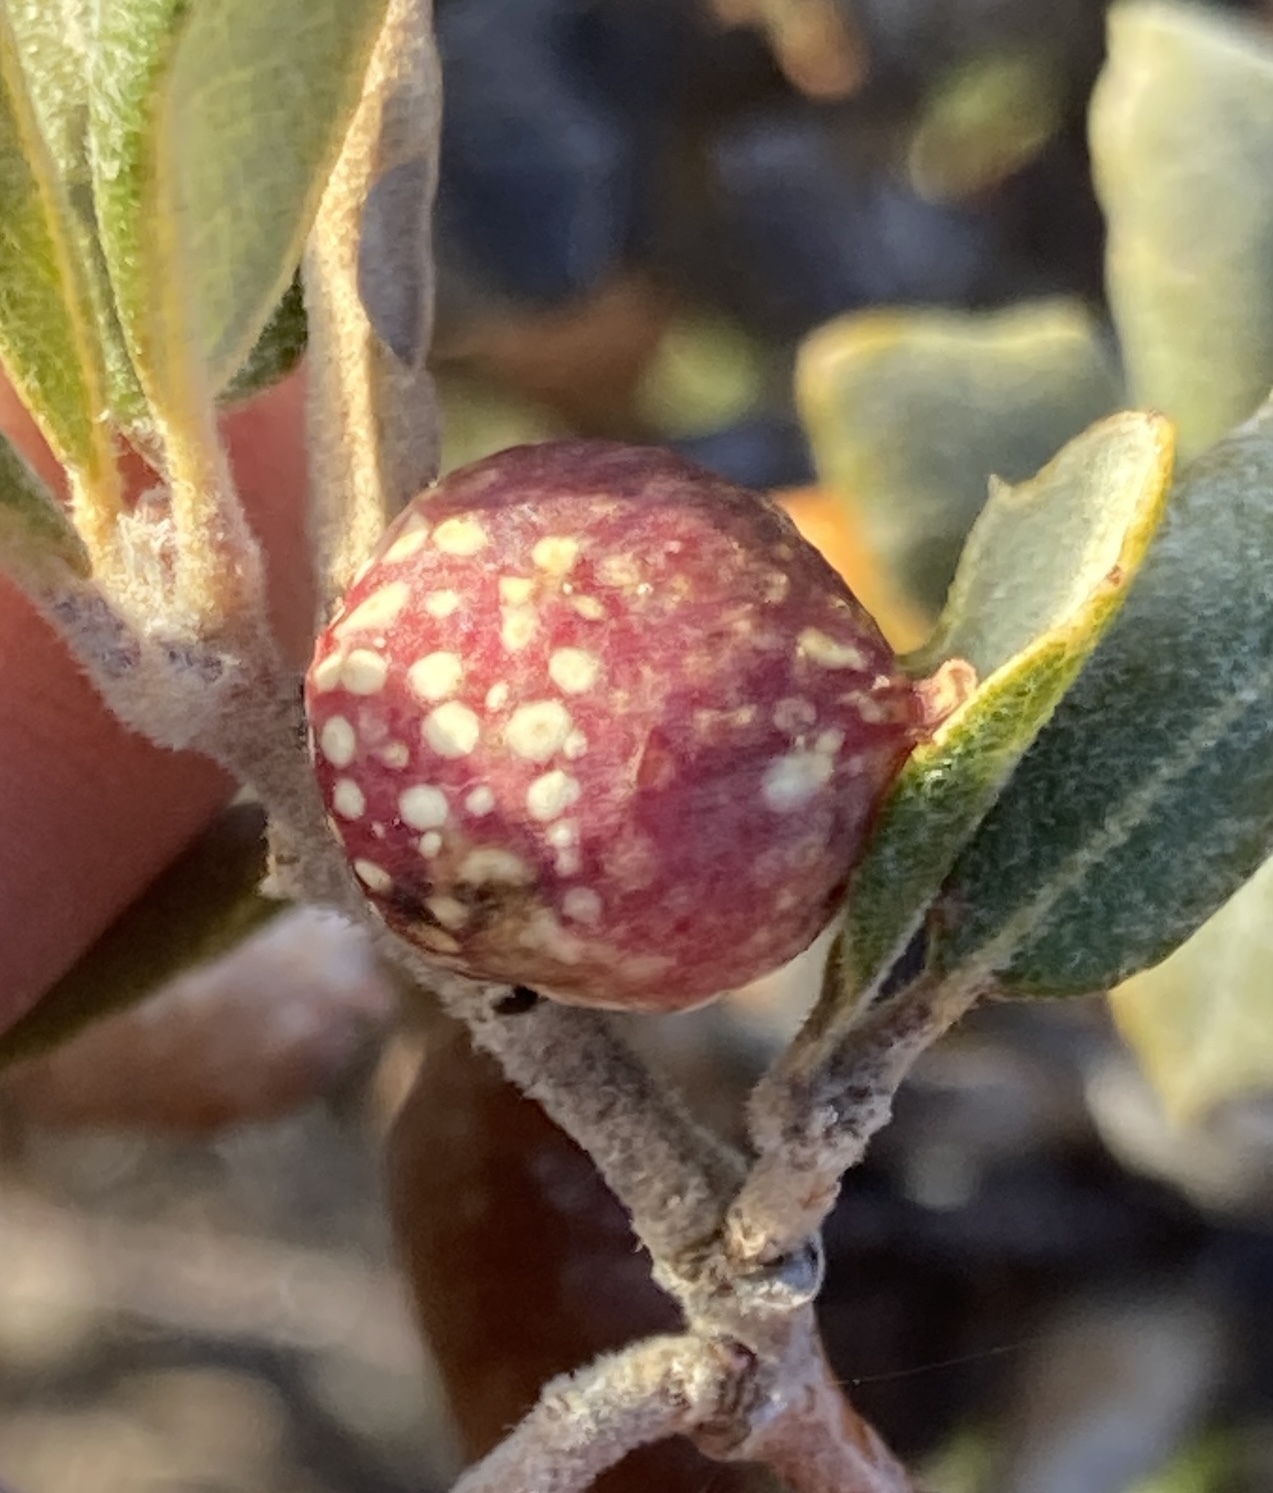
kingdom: Animalia
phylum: Arthropoda
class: Insecta
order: Hymenoptera
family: Cynipidae
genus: Burnettweldia
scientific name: Burnettweldia
